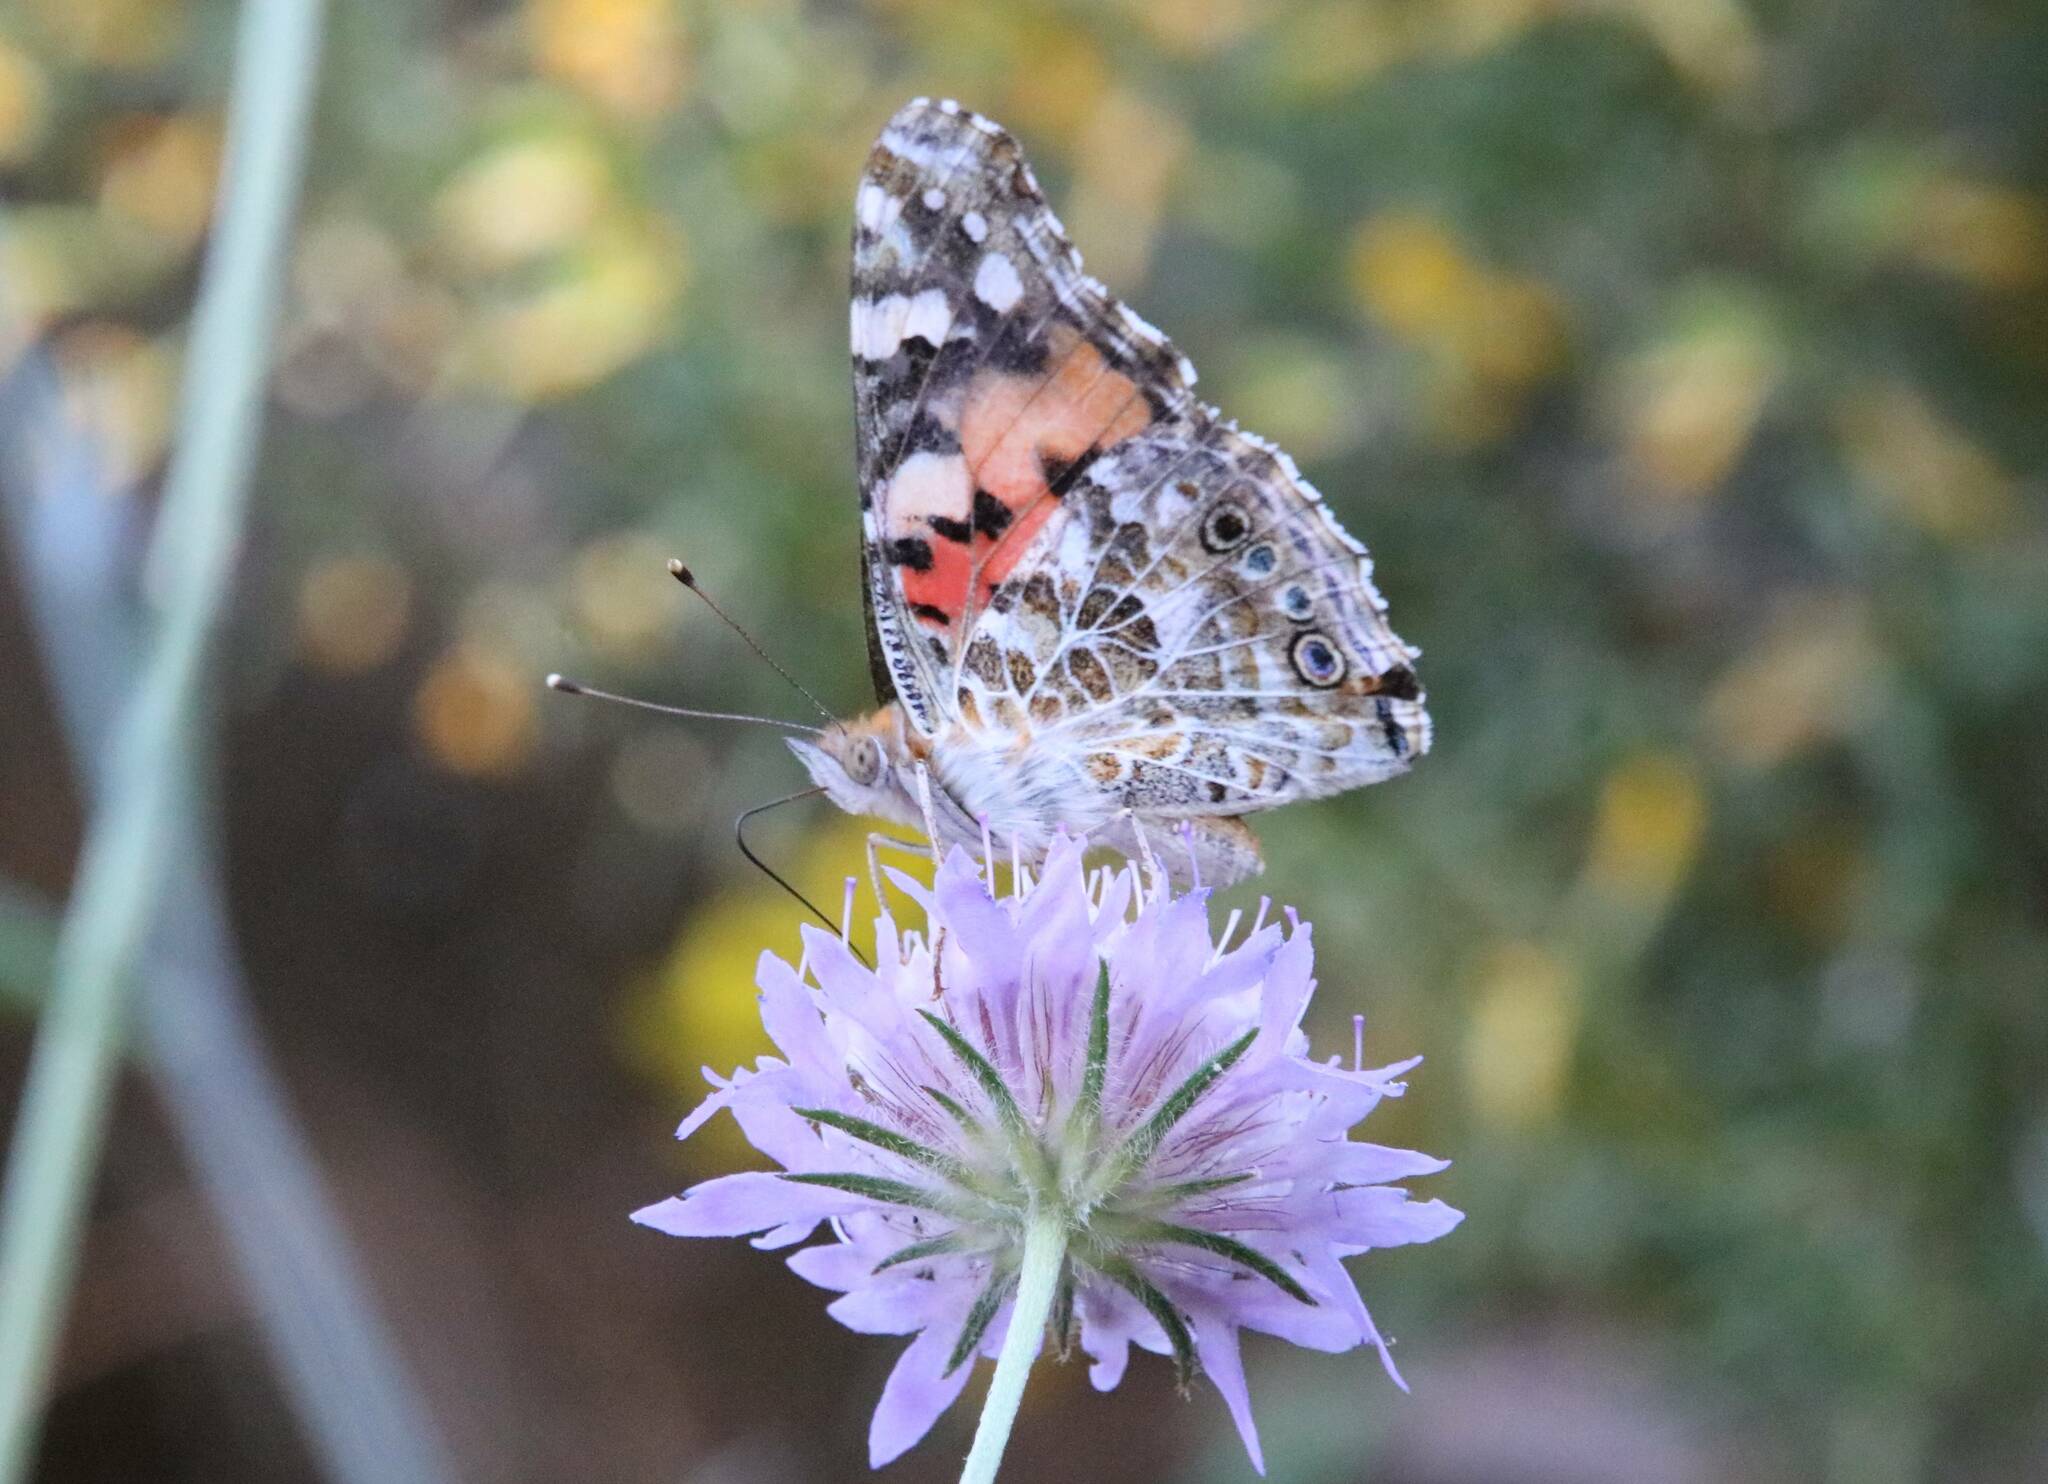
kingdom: Animalia
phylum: Arthropoda
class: Insecta
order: Lepidoptera
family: Nymphalidae
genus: Vanessa
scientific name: Vanessa cardui
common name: Painted lady
